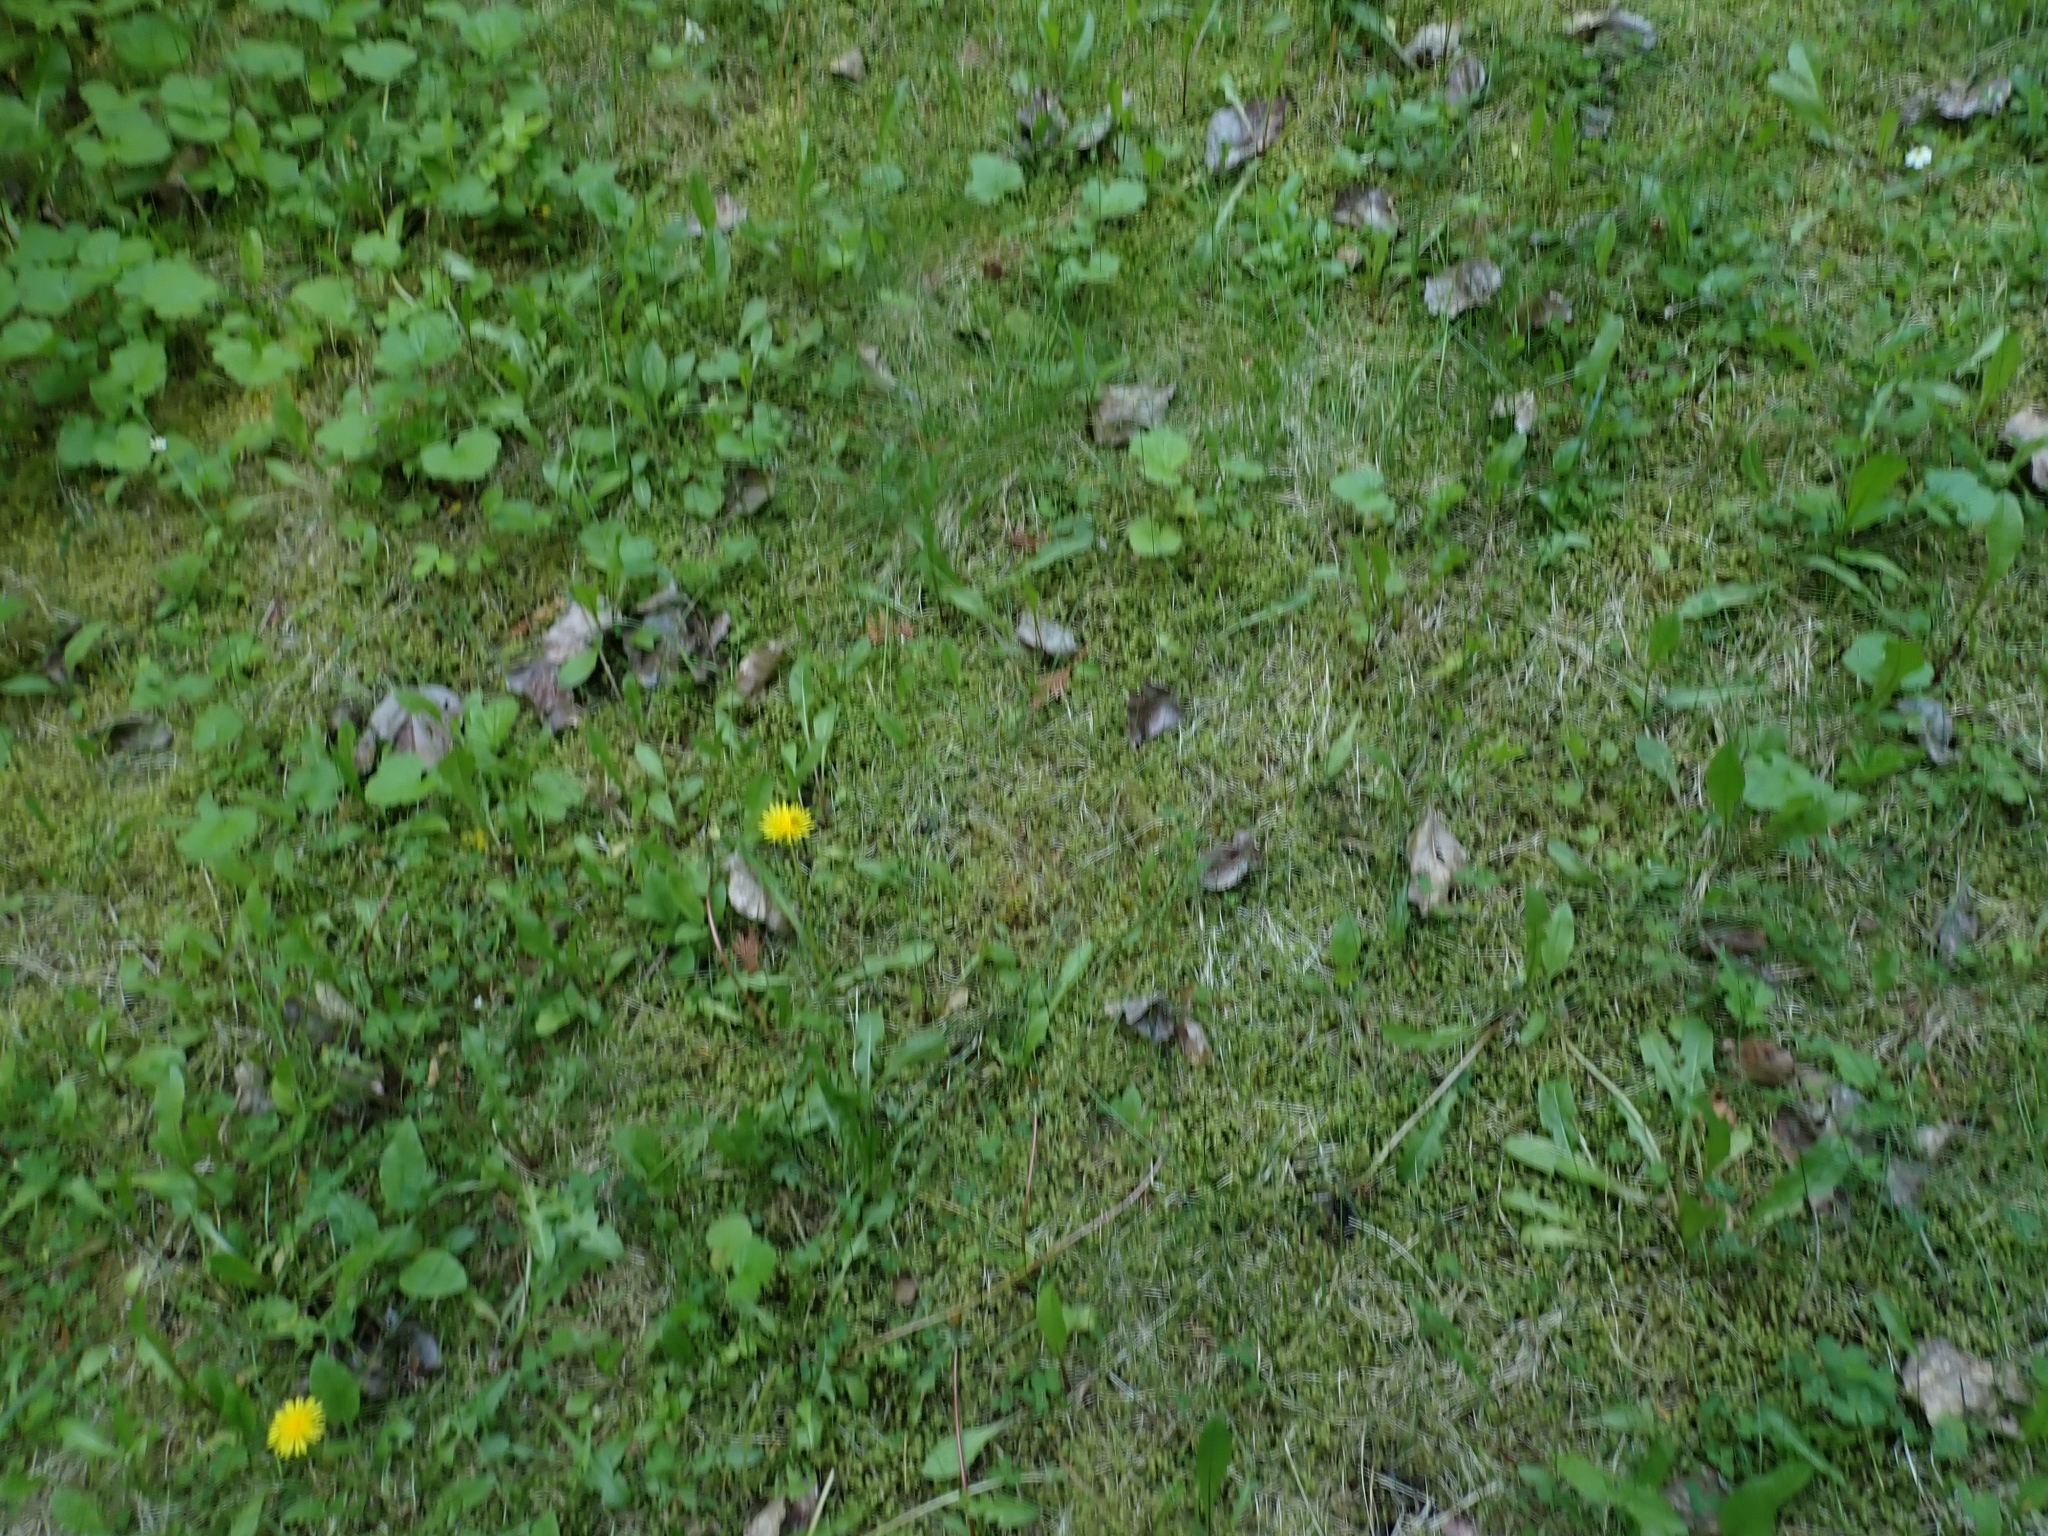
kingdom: Plantae
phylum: Bryophyta
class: Bryopsida
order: Hypnales
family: Hylocomiaceae
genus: Hylocomiadelphus
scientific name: Hylocomiadelphus triquetrus
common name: Rough goose neck moss
